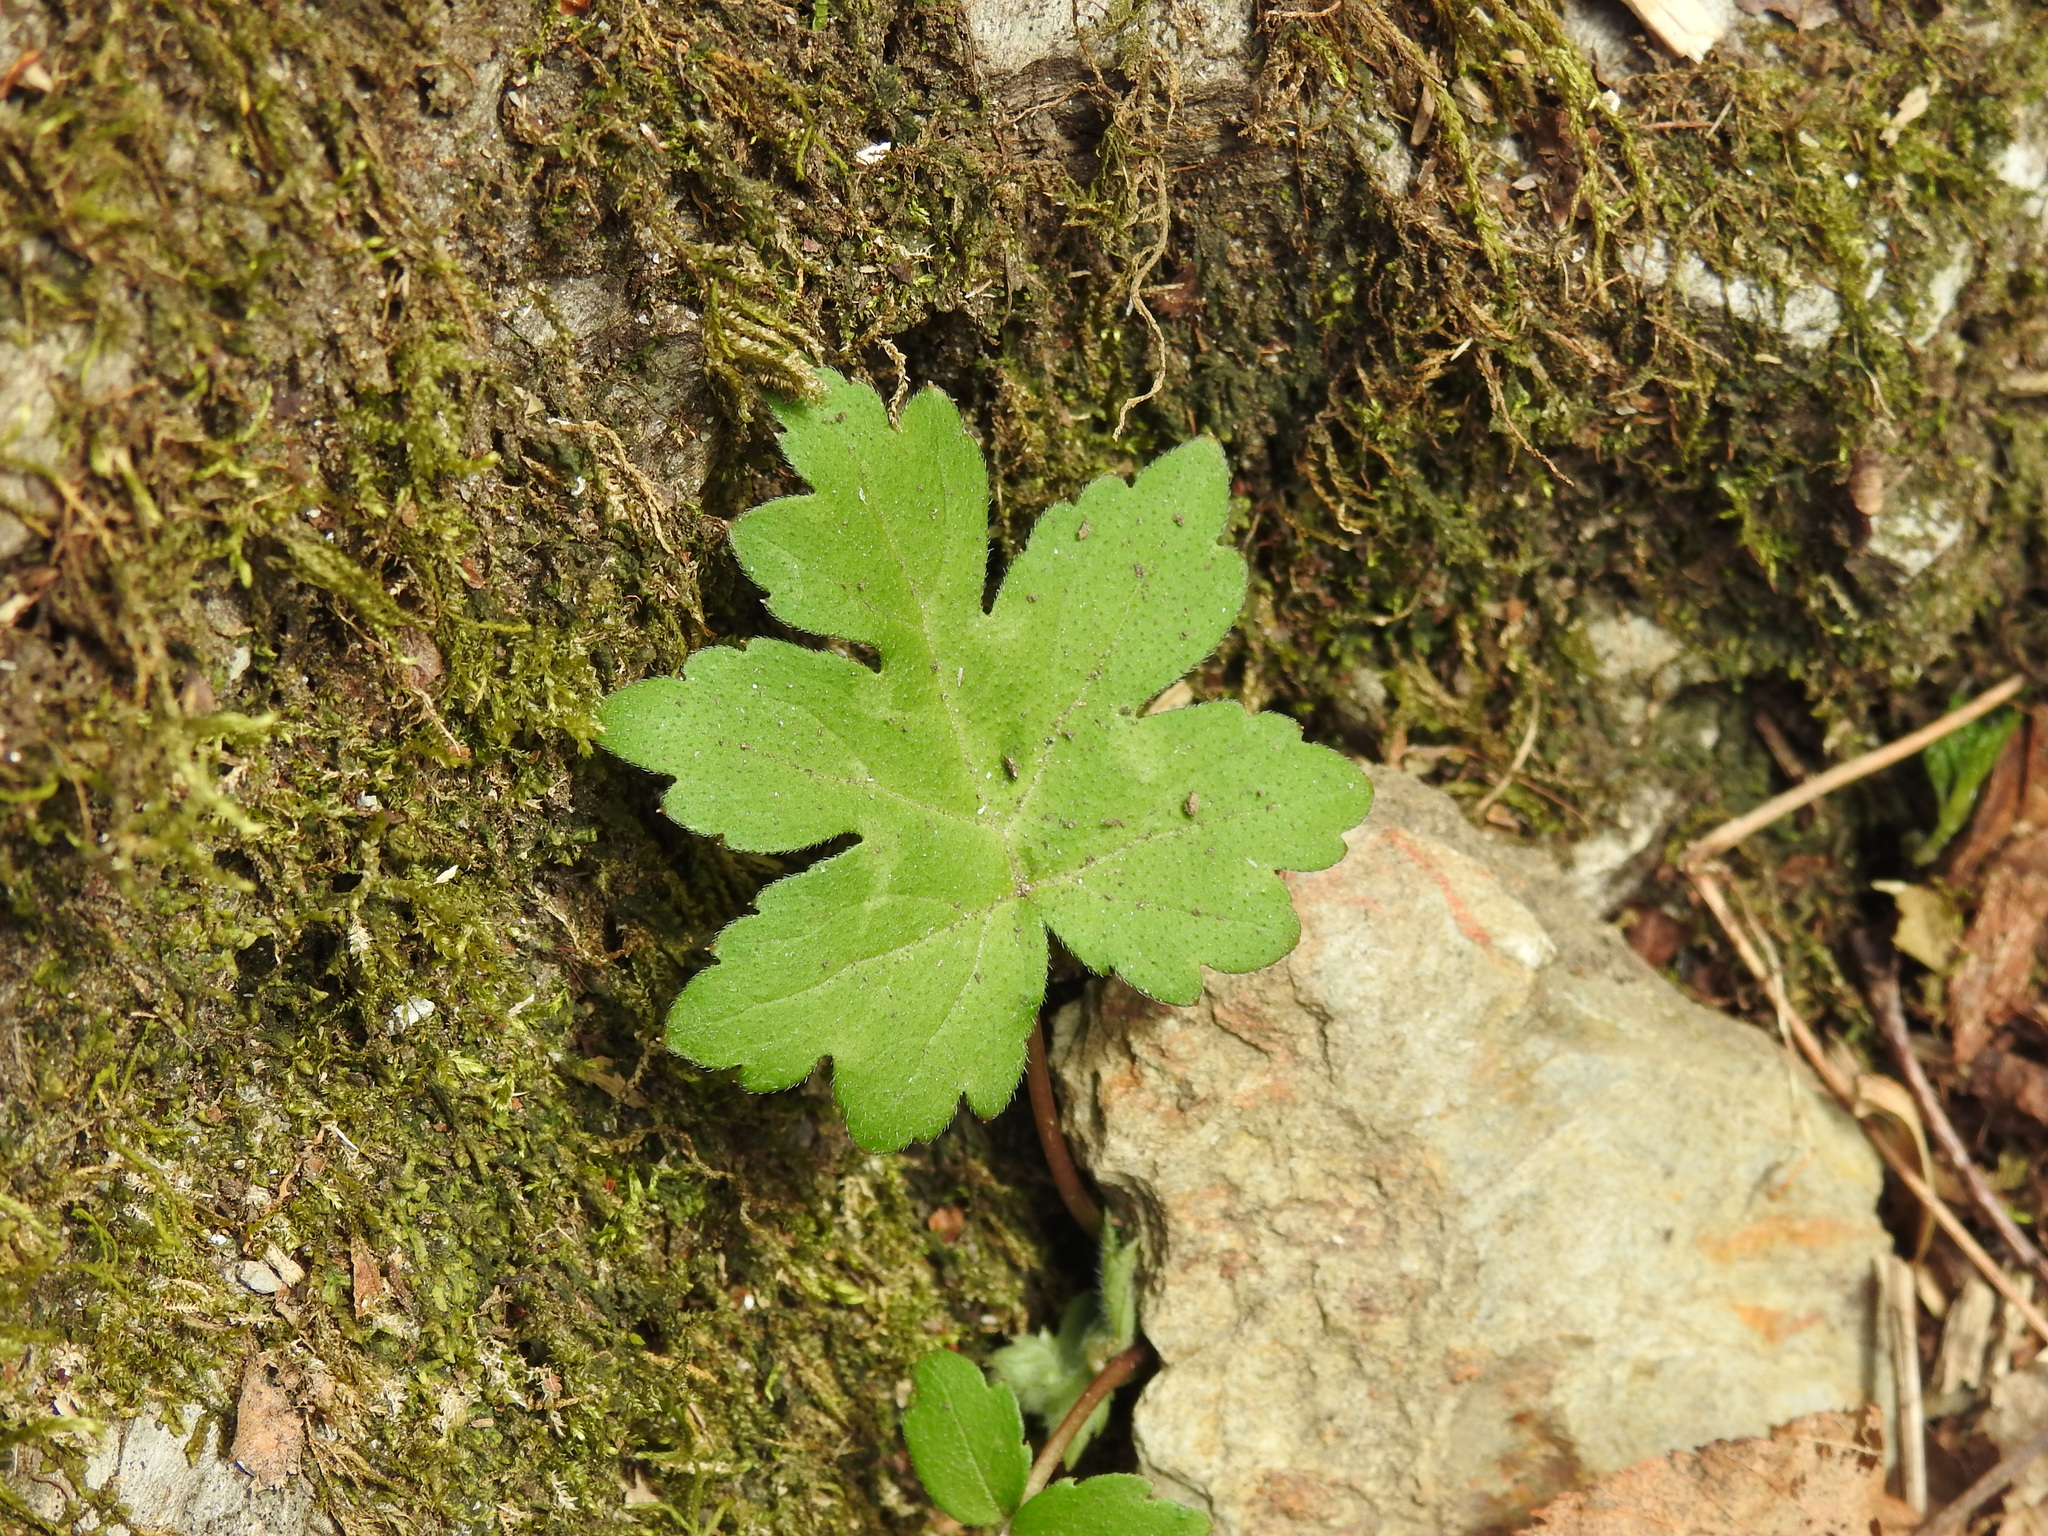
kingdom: Plantae
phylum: Tracheophyta
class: Magnoliopsida
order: Boraginales
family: Hydrophyllaceae
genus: Hydrophyllum
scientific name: Hydrophyllum canadense
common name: Canada waterleaf
